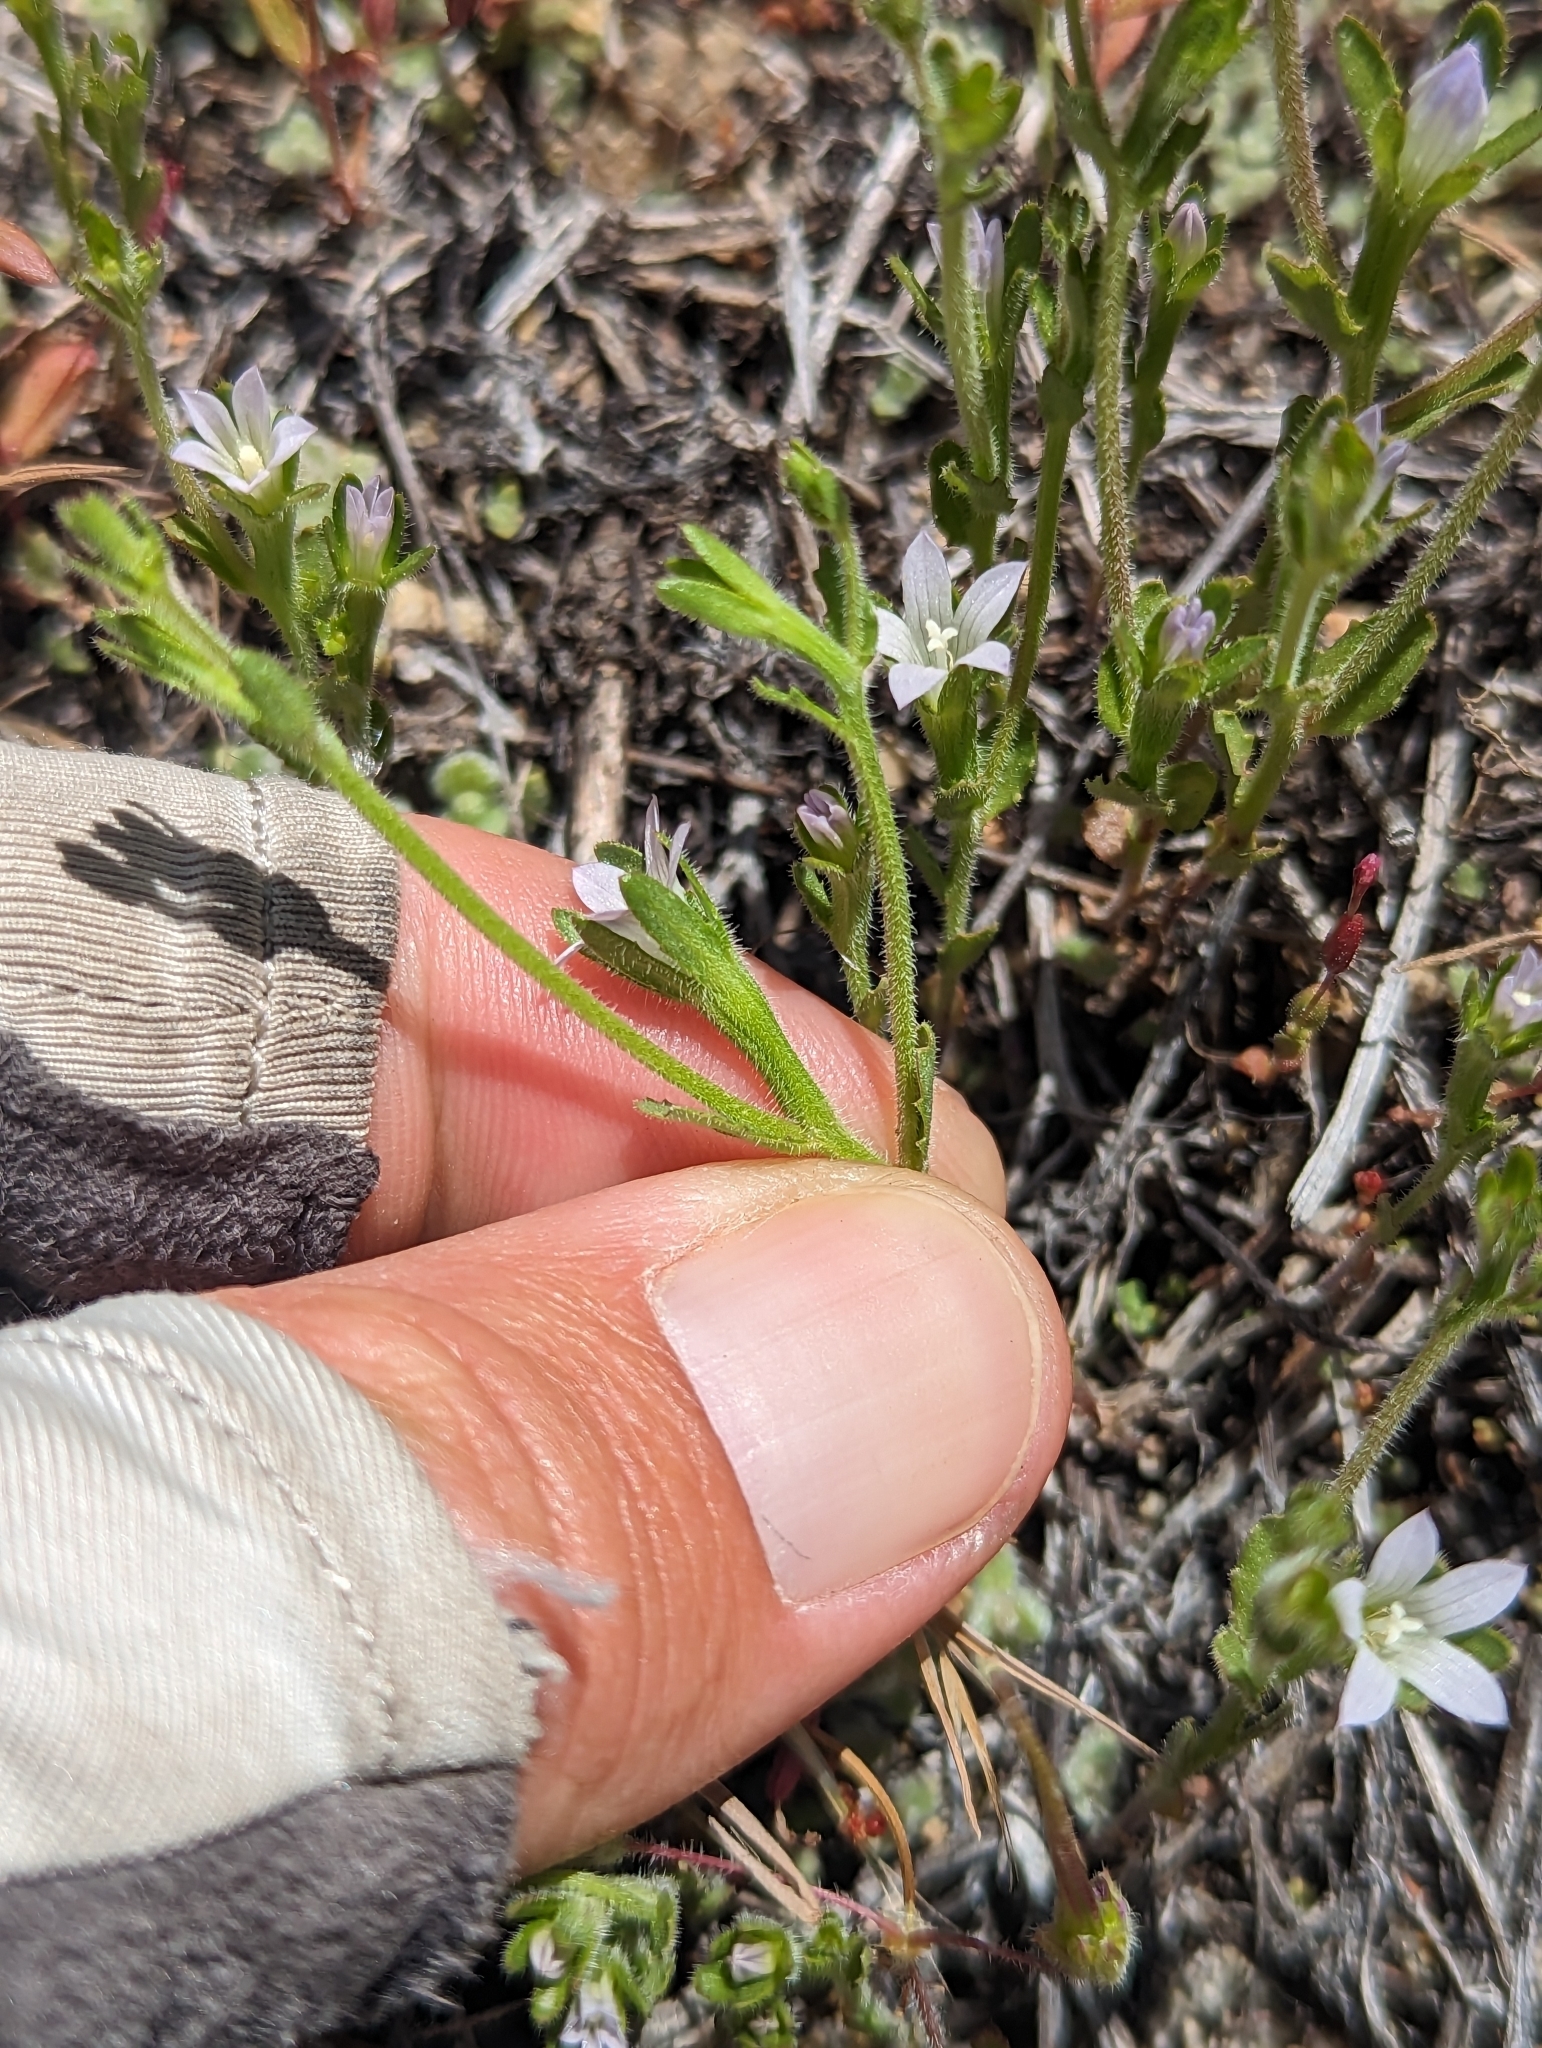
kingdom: Plantae
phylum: Tracheophyta
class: Magnoliopsida
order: Asterales
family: Campanulaceae
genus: Githopsis
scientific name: Githopsis diffusa
